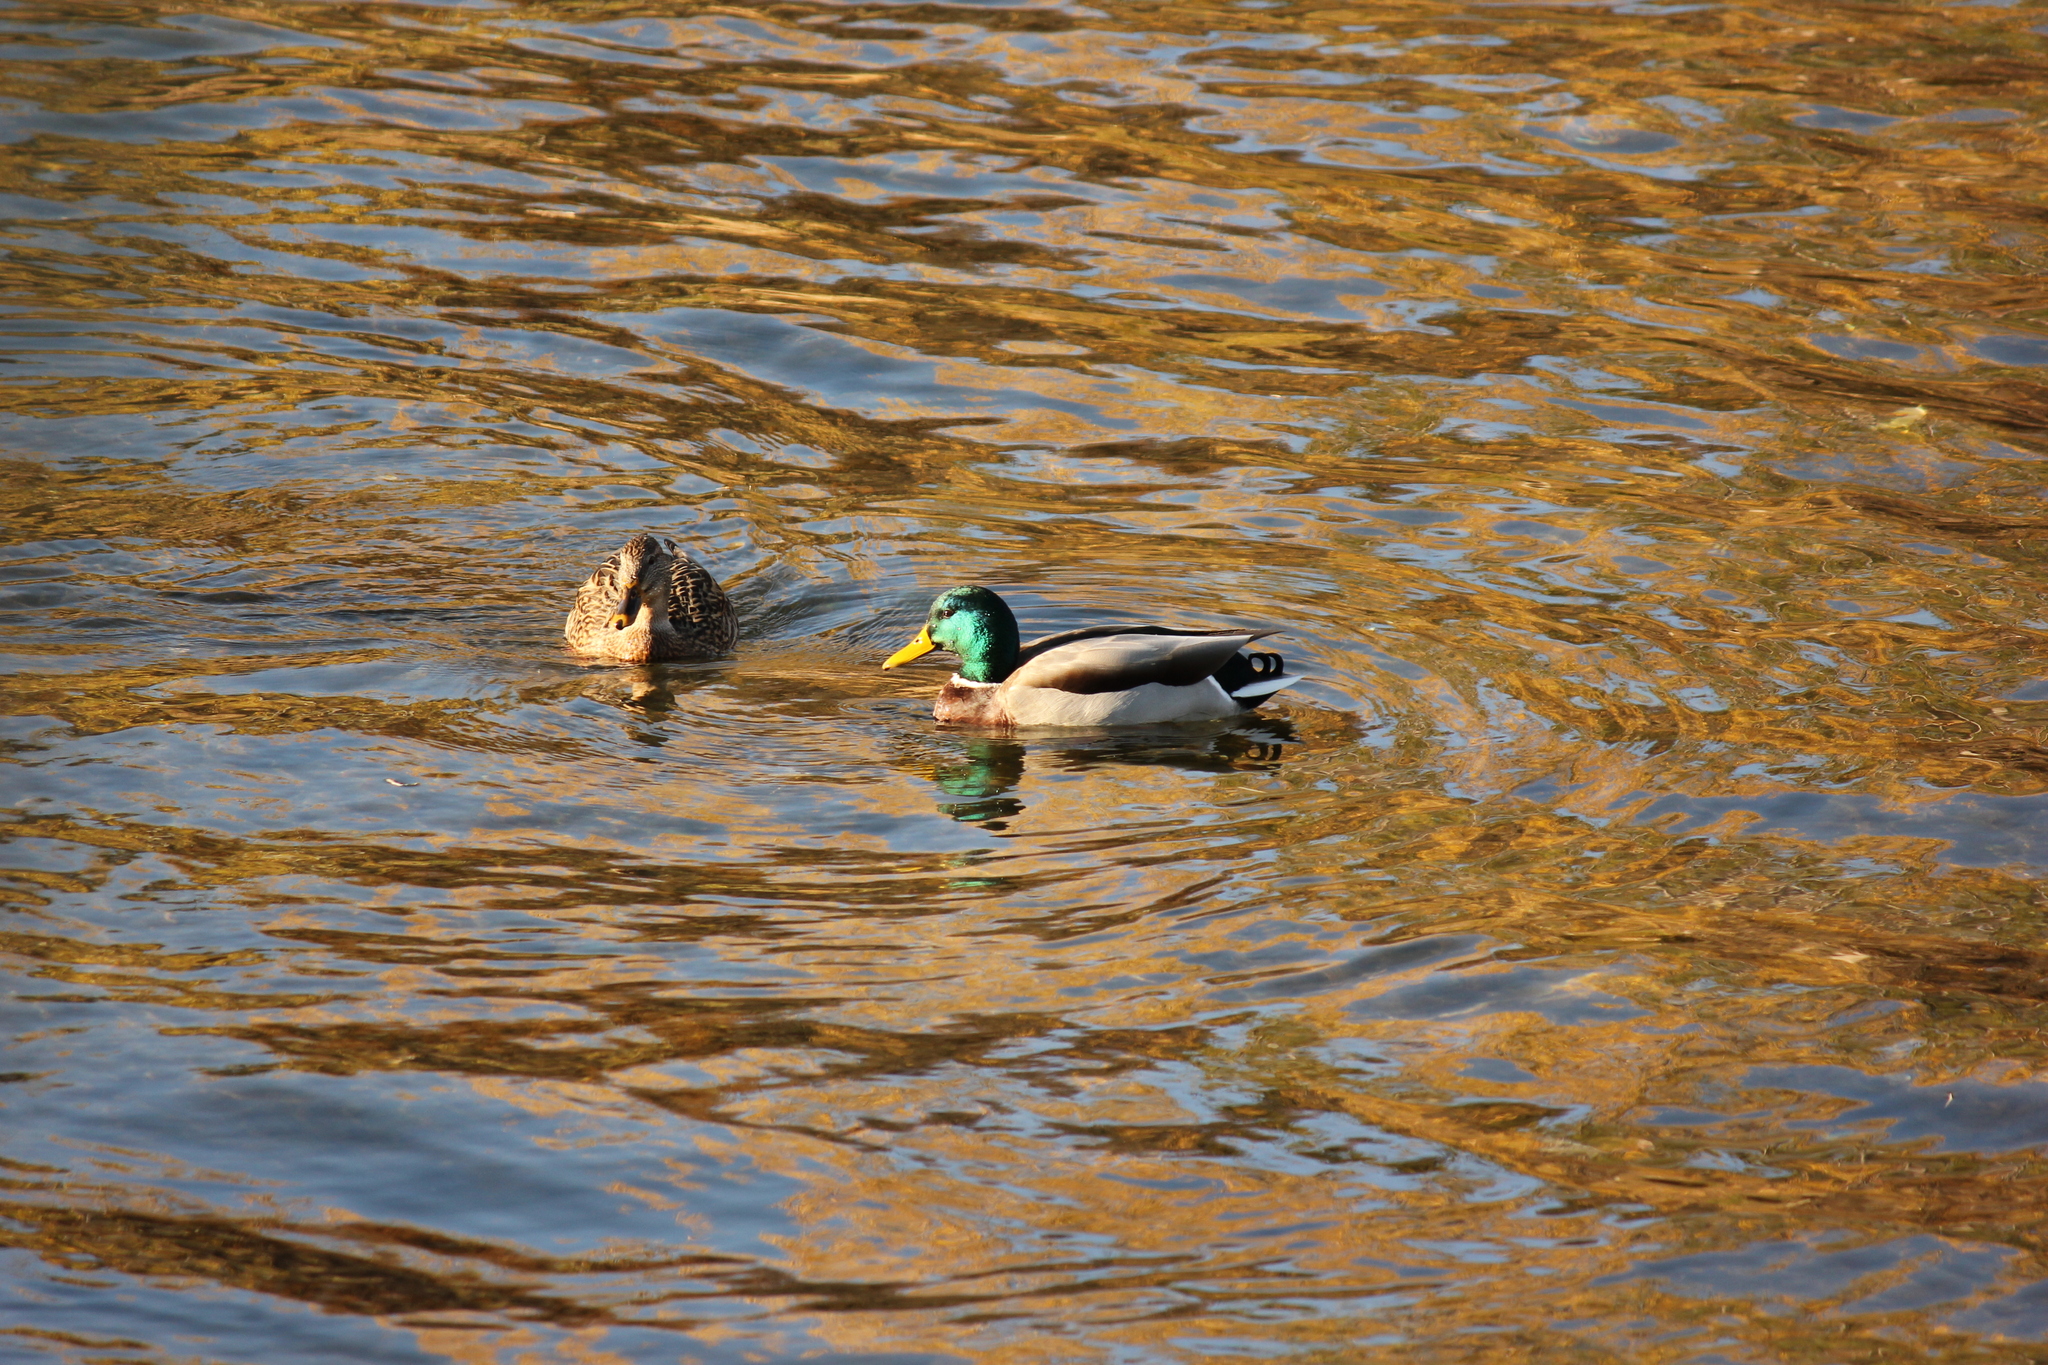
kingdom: Animalia
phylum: Chordata
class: Aves
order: Anseriformes
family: Anatidae
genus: Anas
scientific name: Anas platyrhynchos
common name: Mallard
